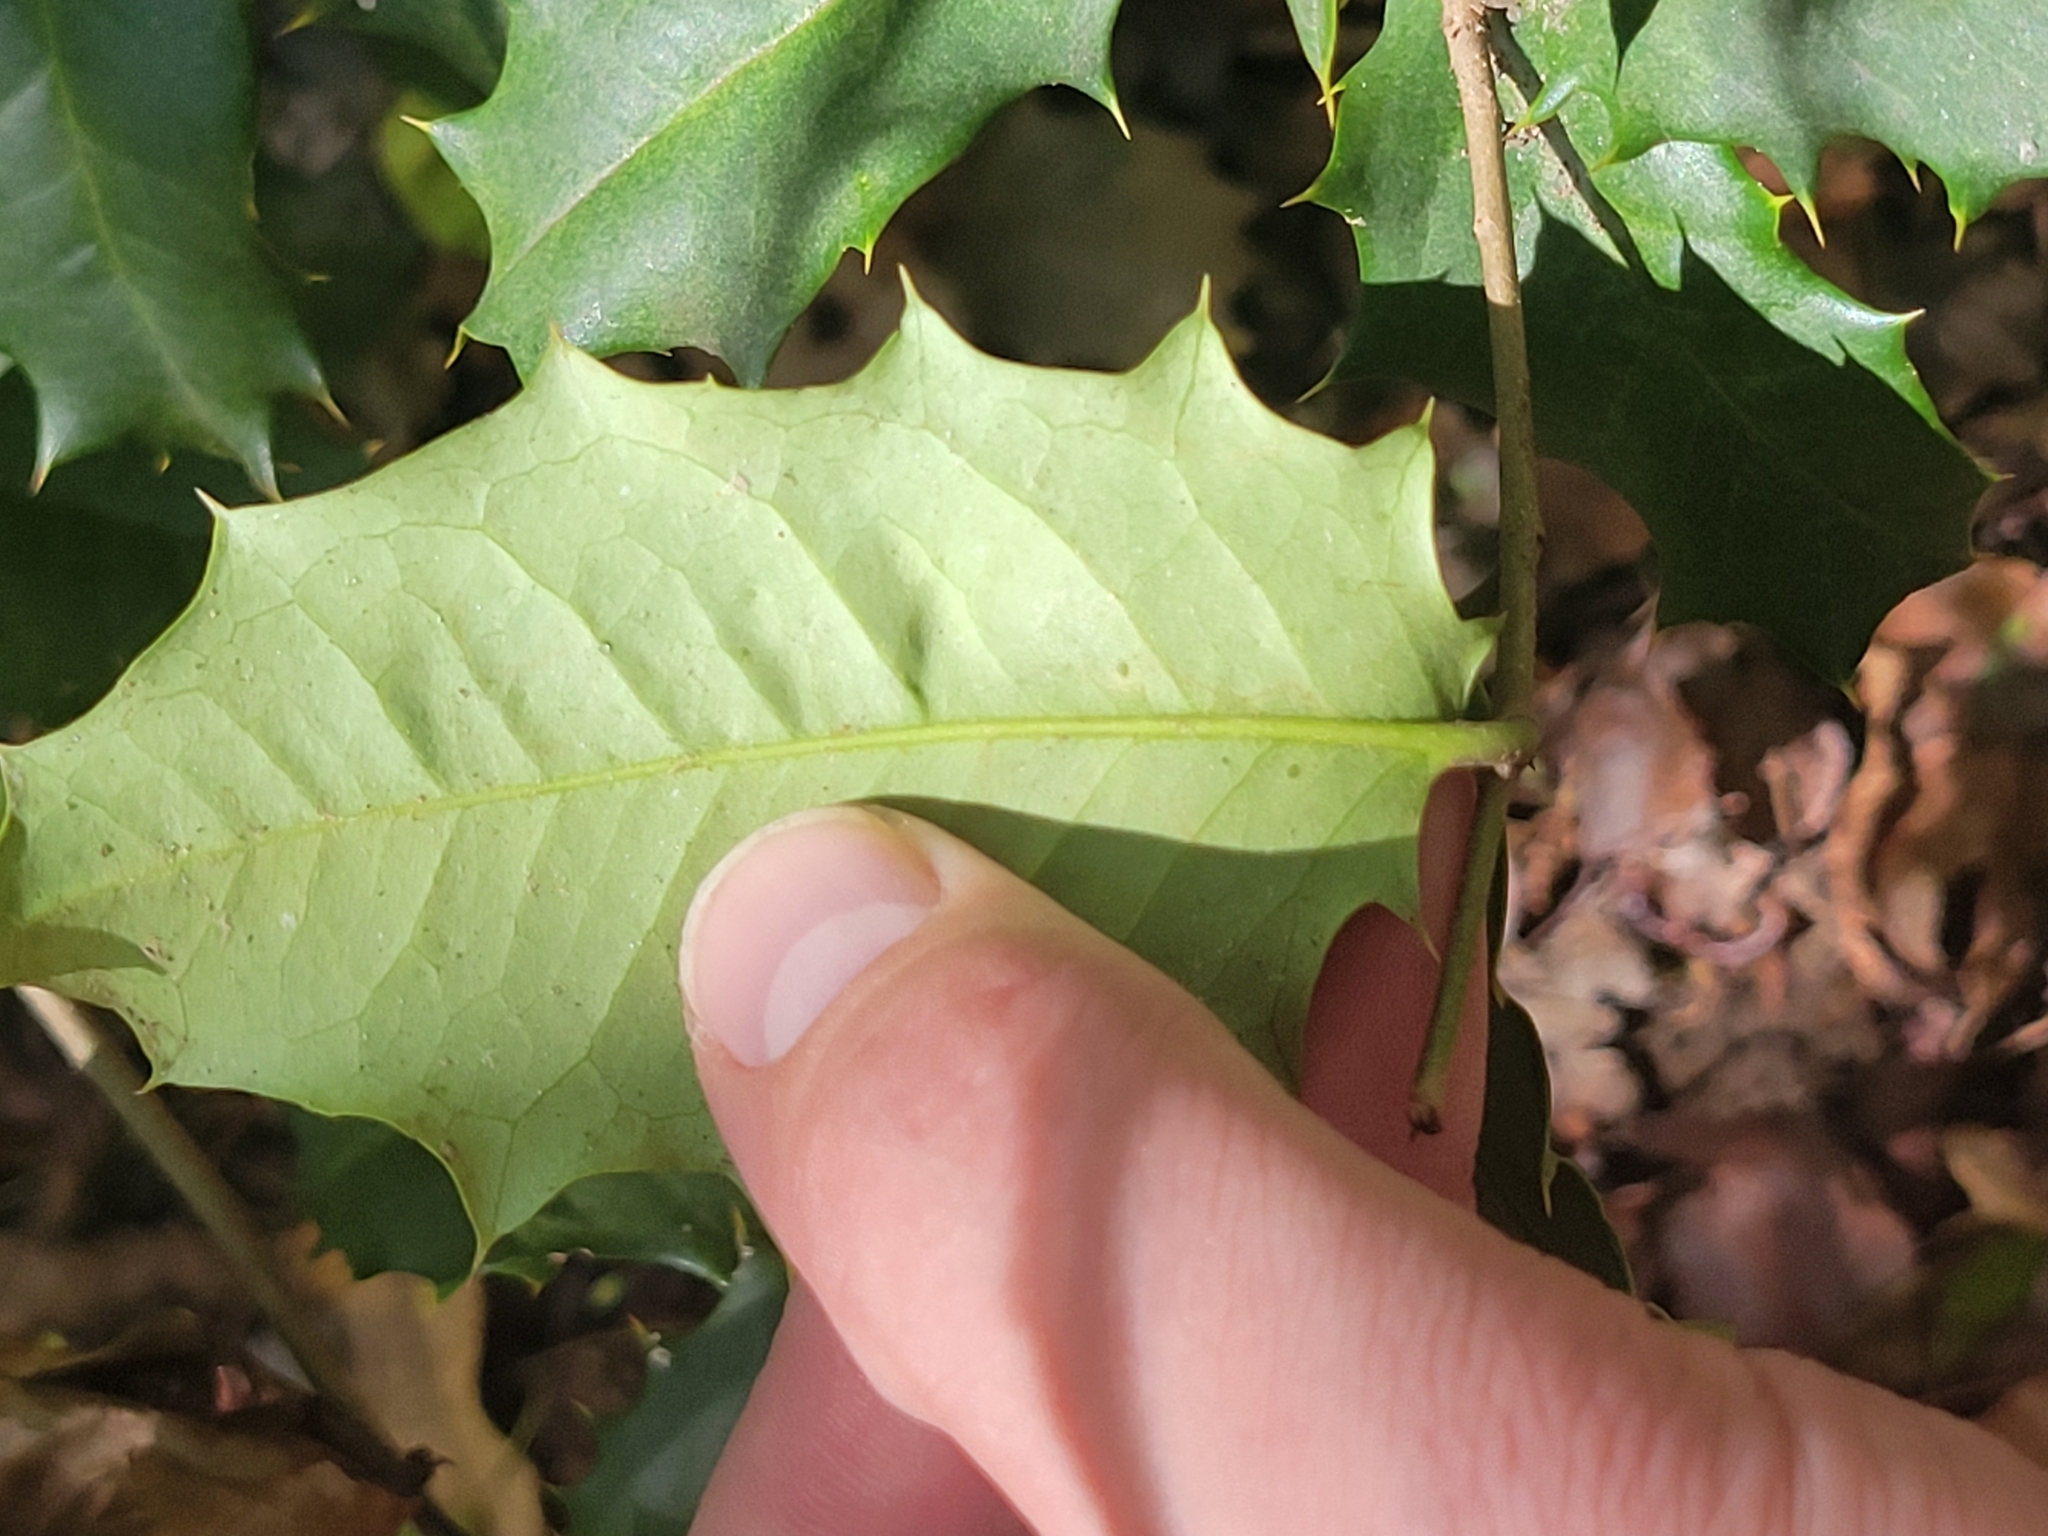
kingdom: Plantae
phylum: Tracheophyta
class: Magnoliopsida
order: Aquifoliales
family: Aquifoliaceae
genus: Ilex
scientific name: Ilex opaca
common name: American holly
